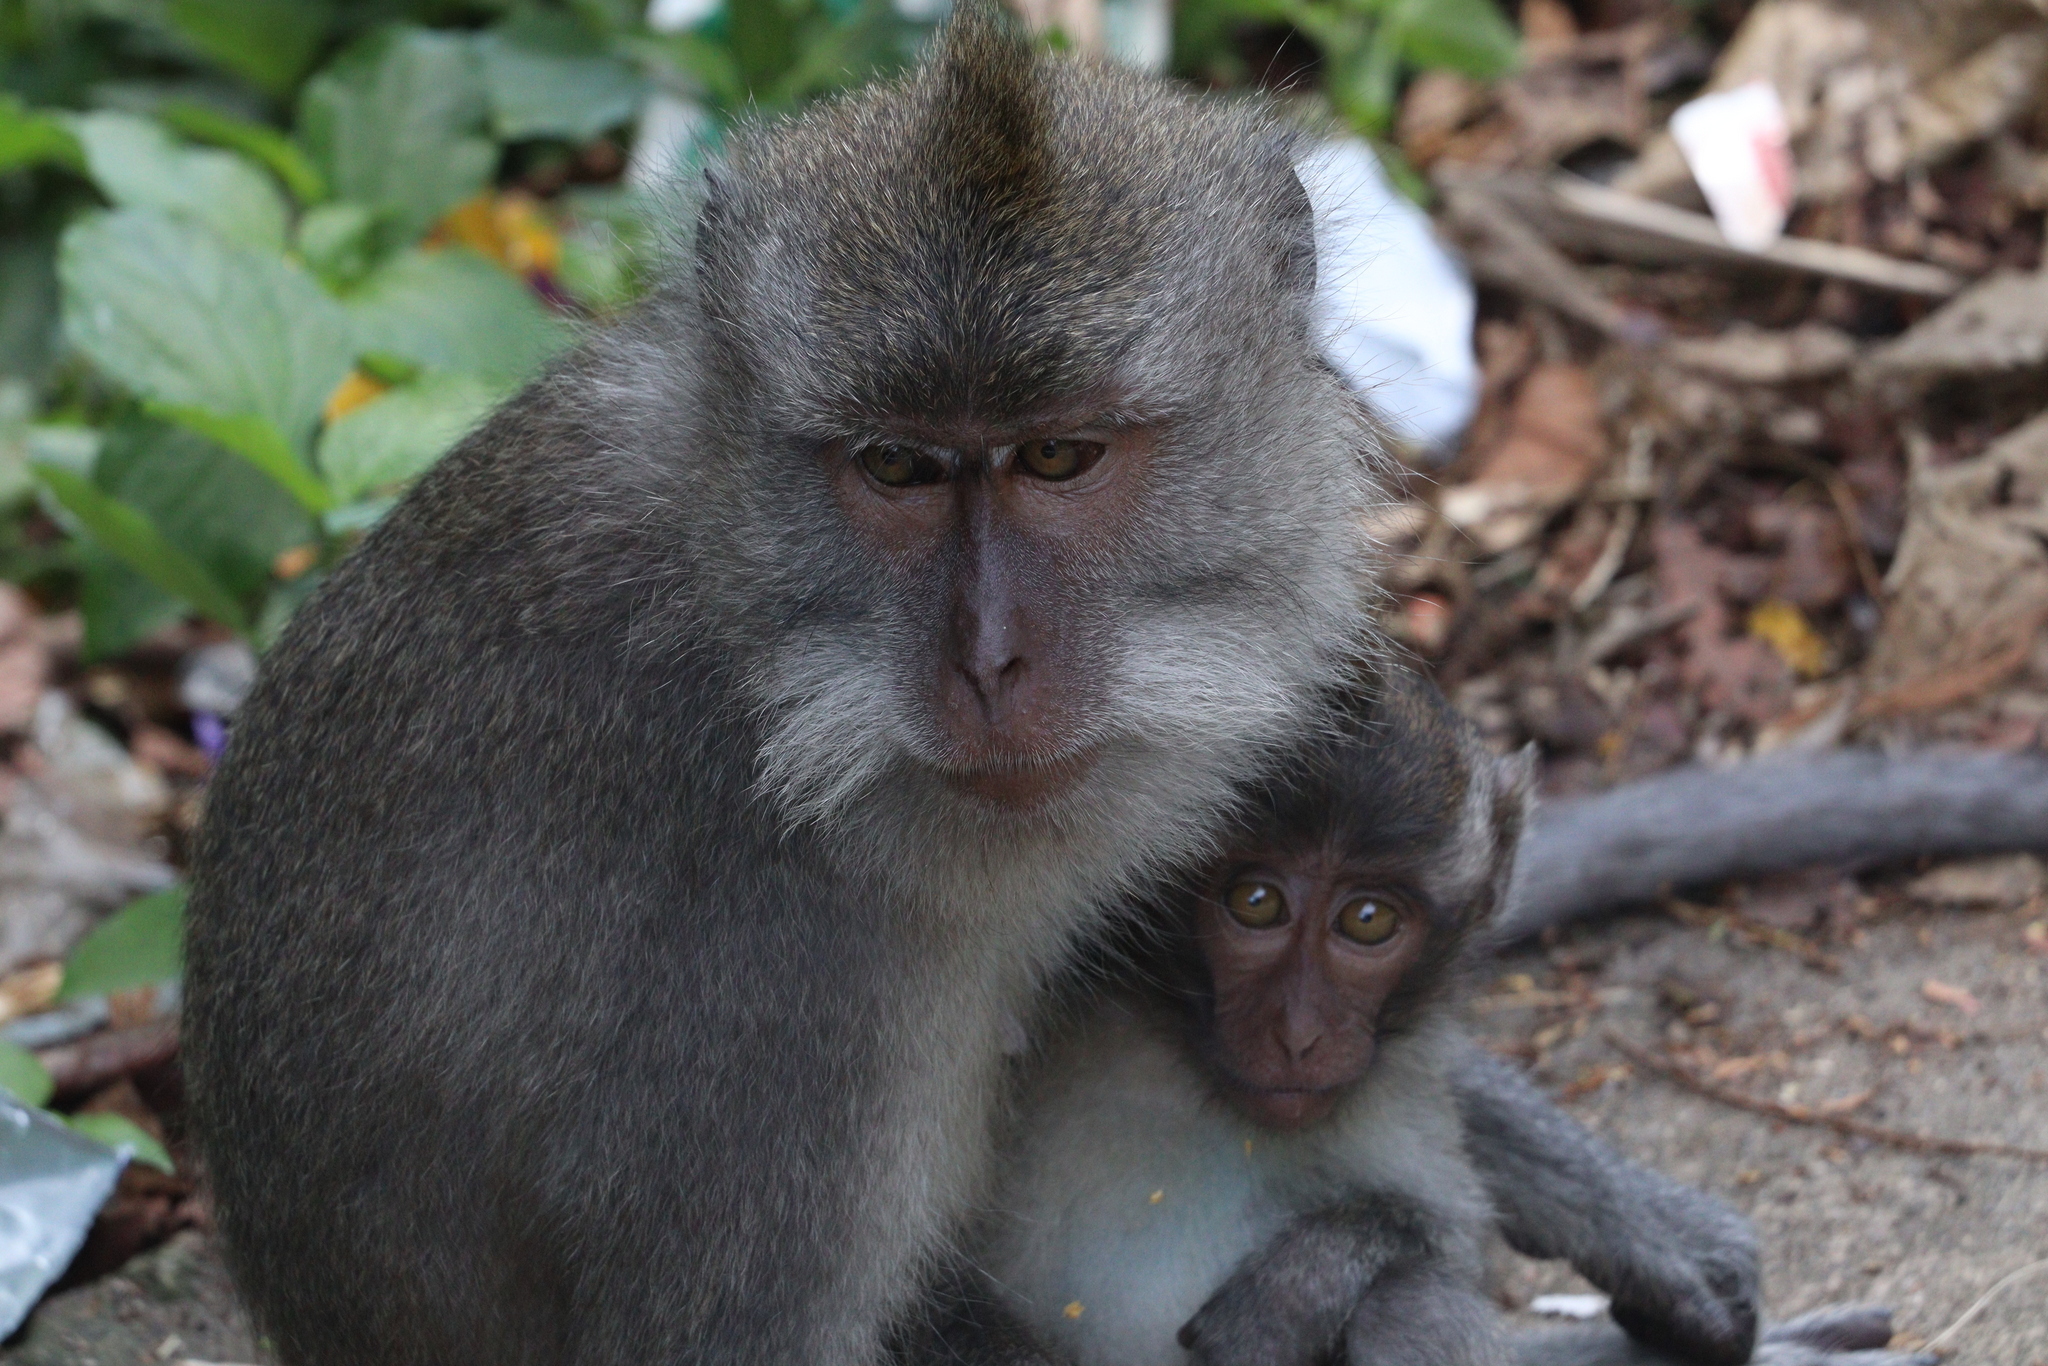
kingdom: Animalia
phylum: Chordata
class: Mammalia
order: Primates
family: Cercopithecidae
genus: Macaca
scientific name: Macaca fascicularis
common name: Crab-eating macaque
